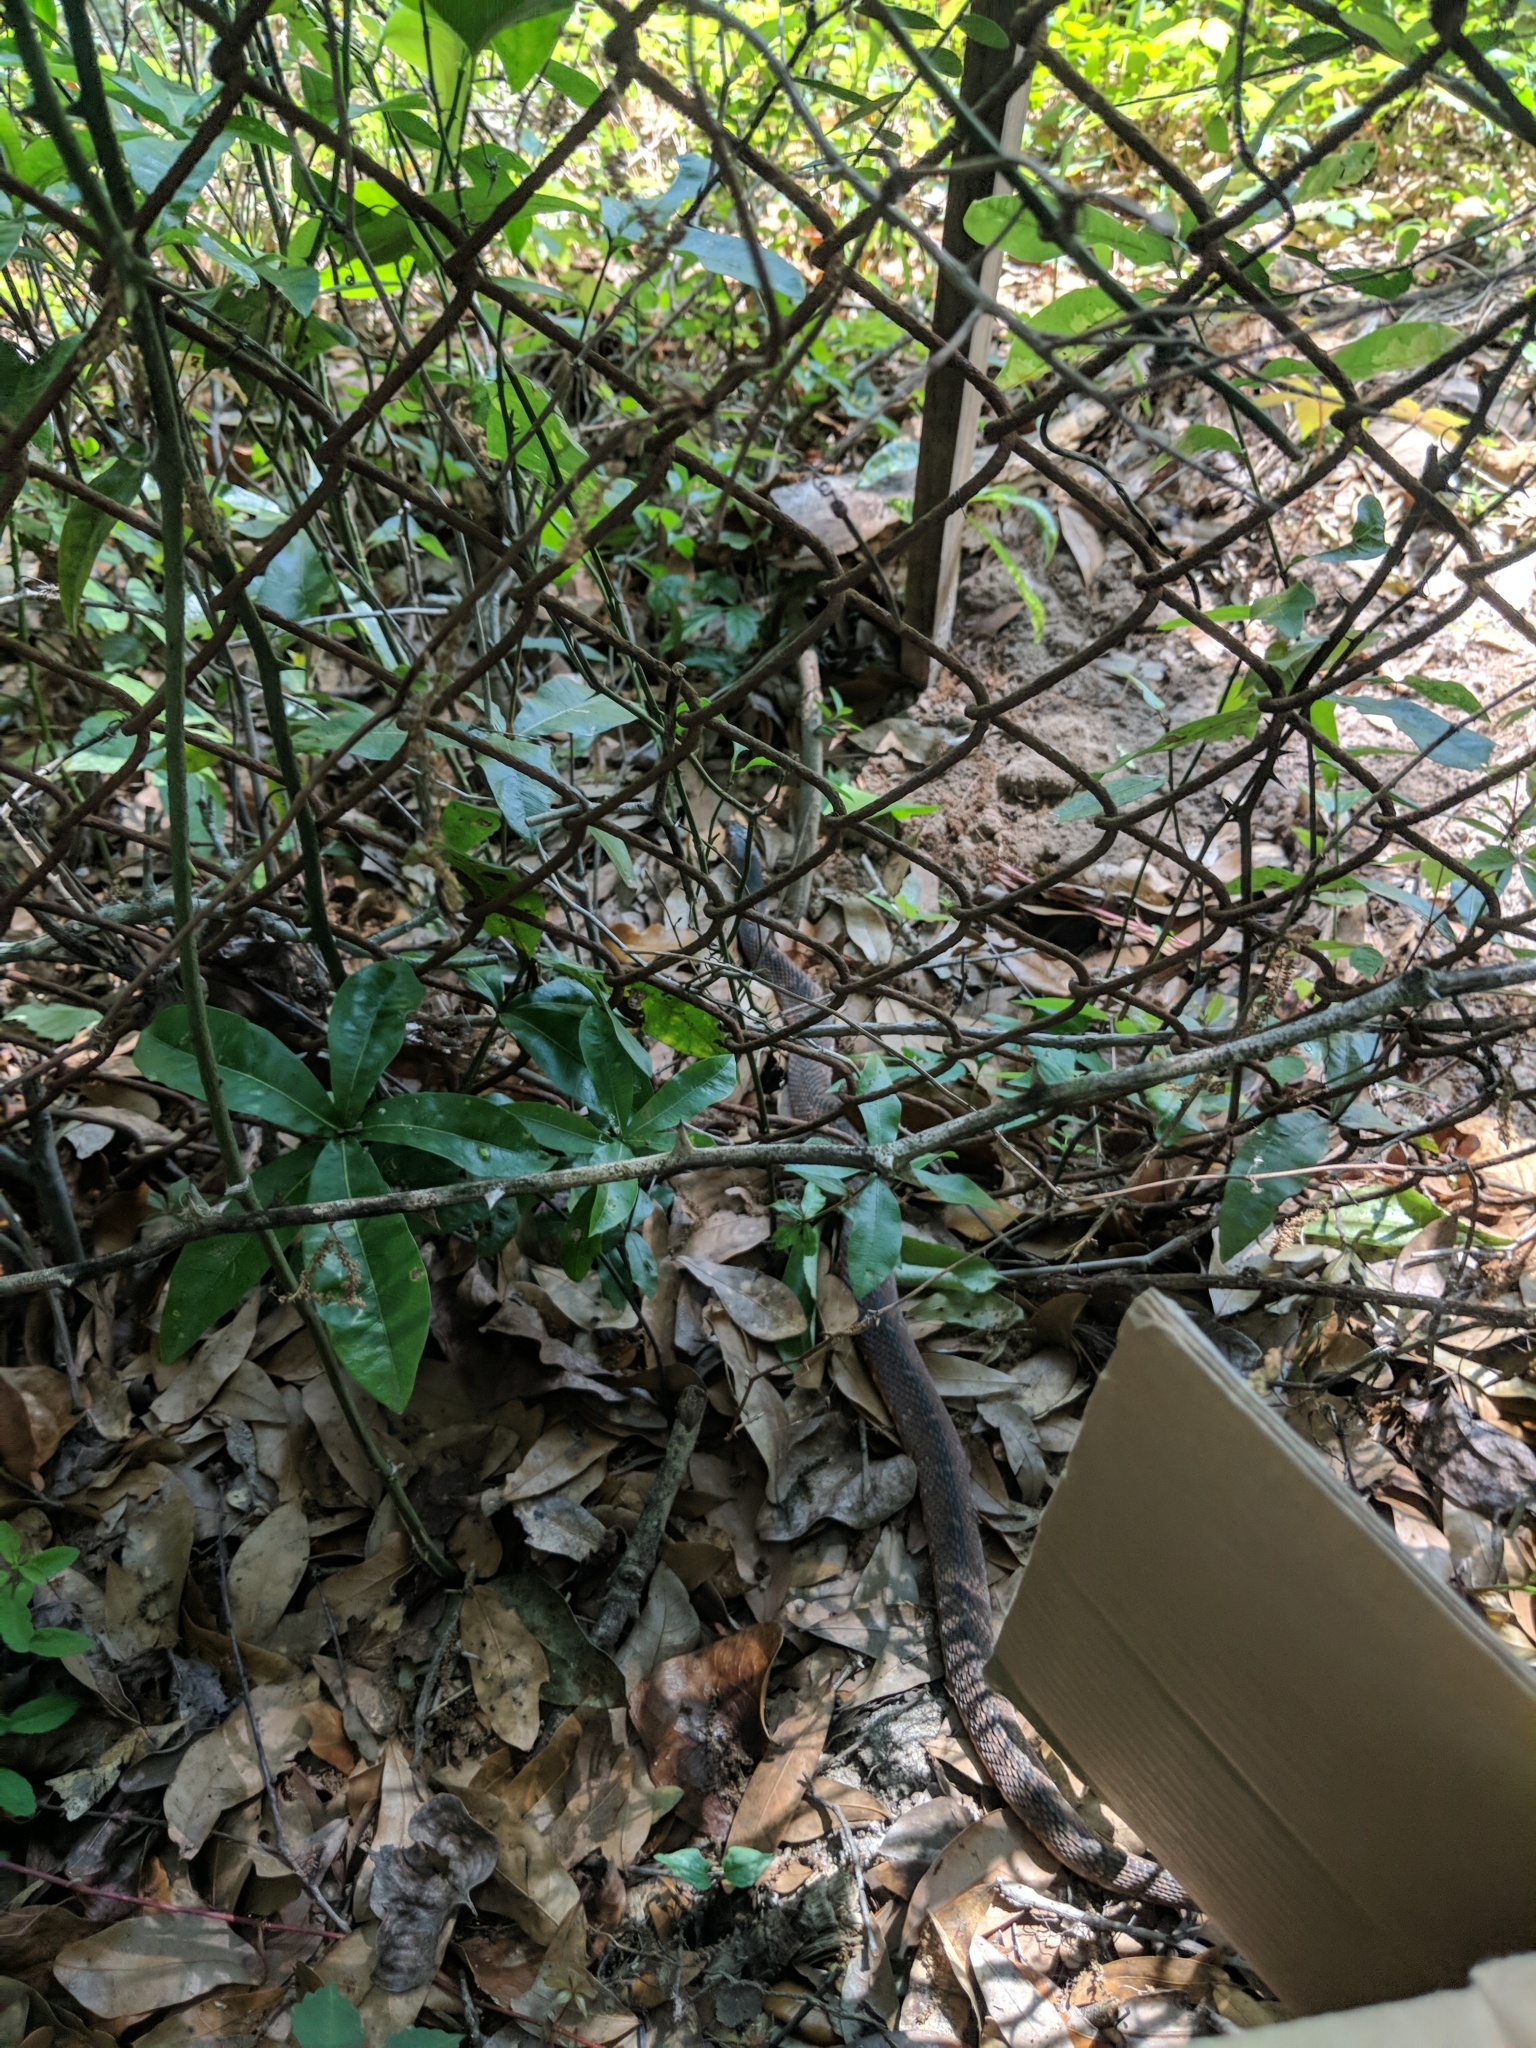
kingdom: Animalia
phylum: Chordata
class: Squamata
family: Colubridae
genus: Nerodia
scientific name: Nerodia fasciata
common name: Southern water snake
